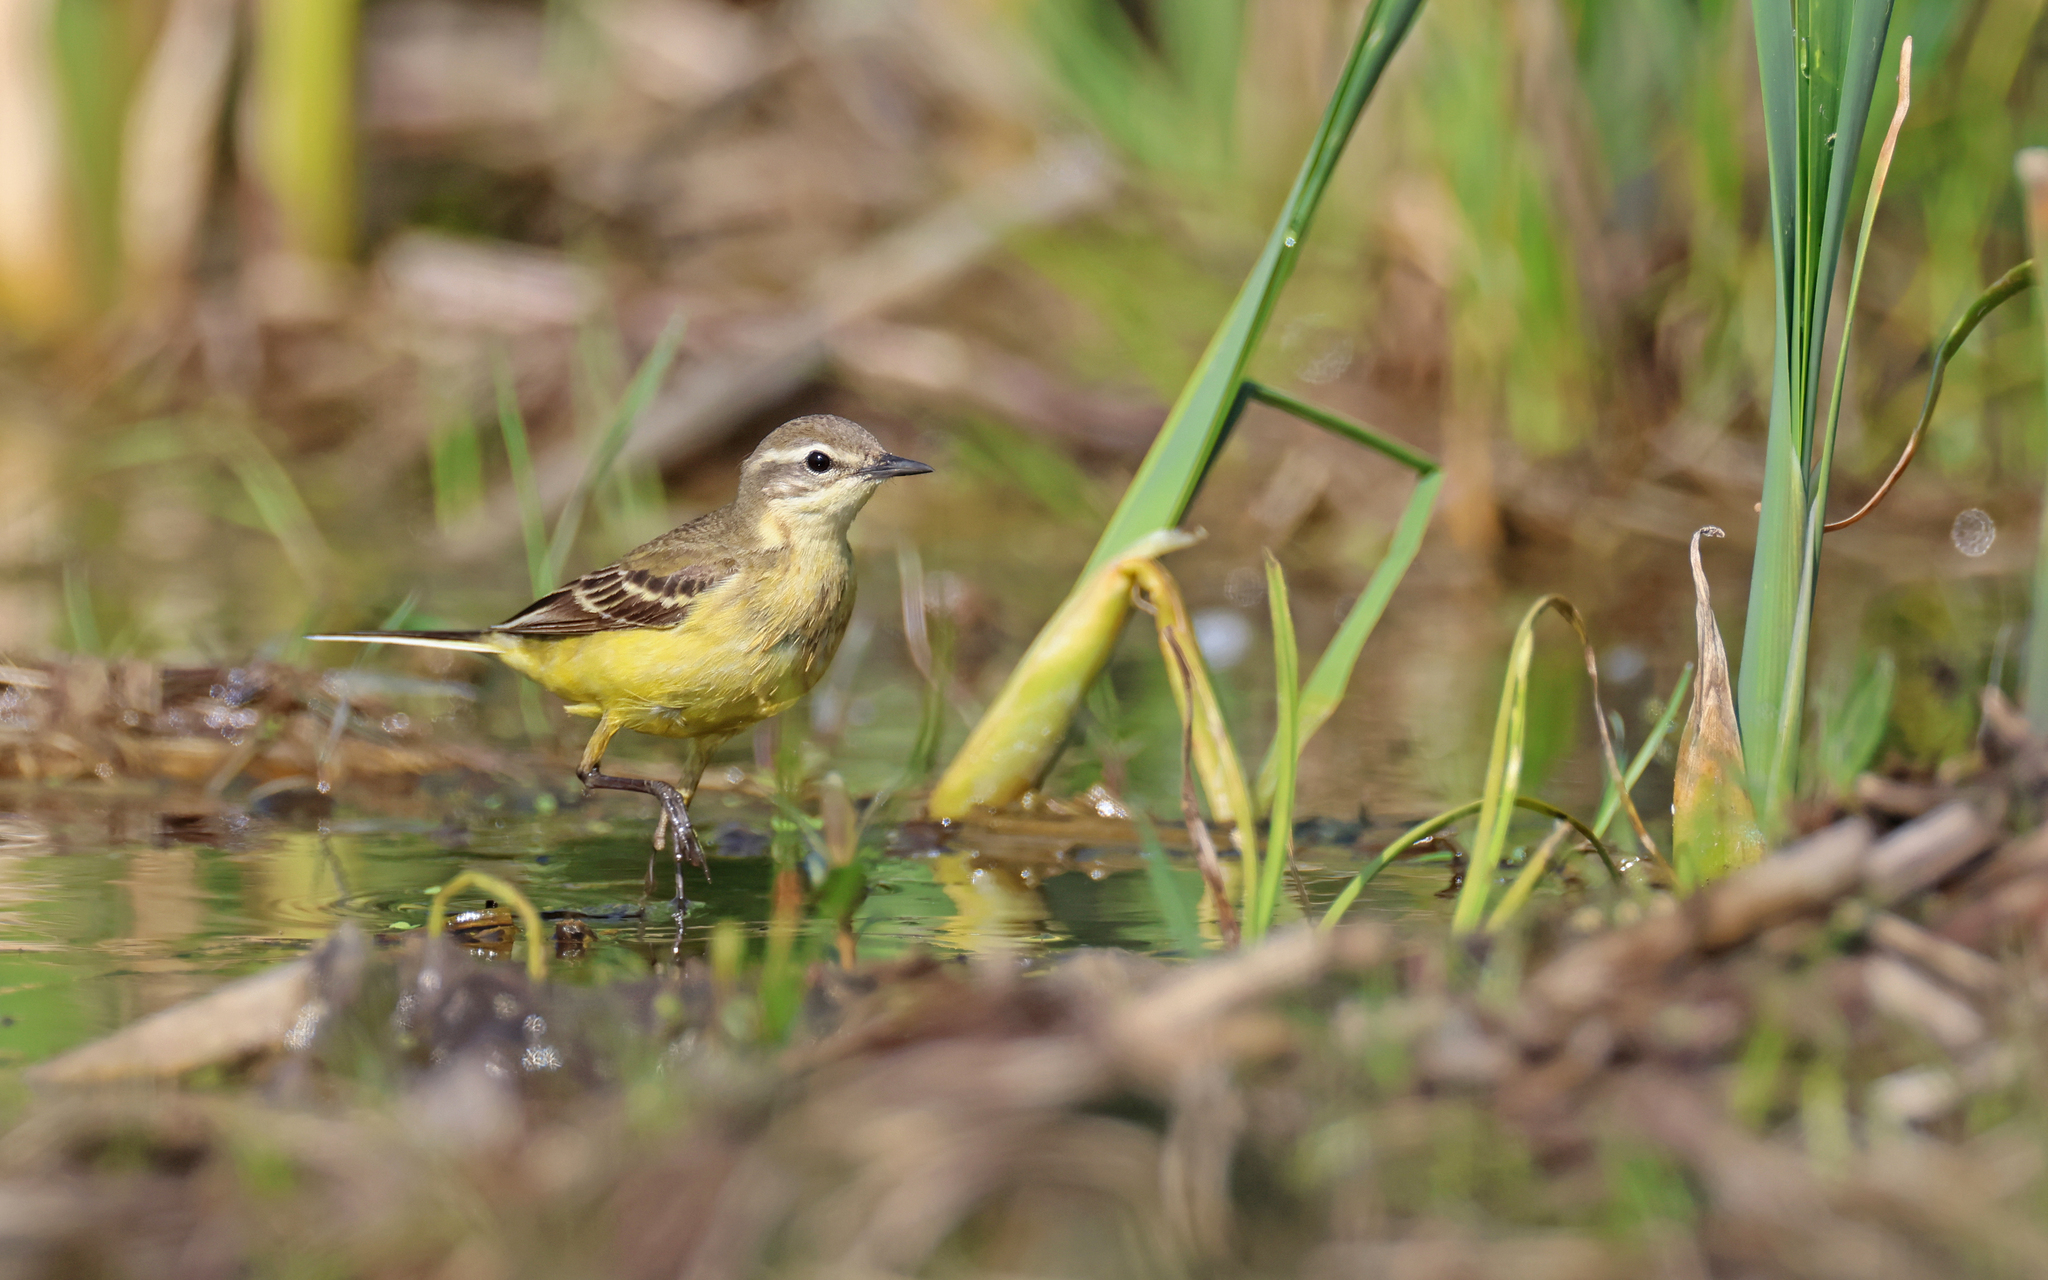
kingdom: Animalia
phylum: Chordata
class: Aves
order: Passeriformes
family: Motacillidae
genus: Motacilla
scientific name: Motacilla flava
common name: Western yellow wagtail
